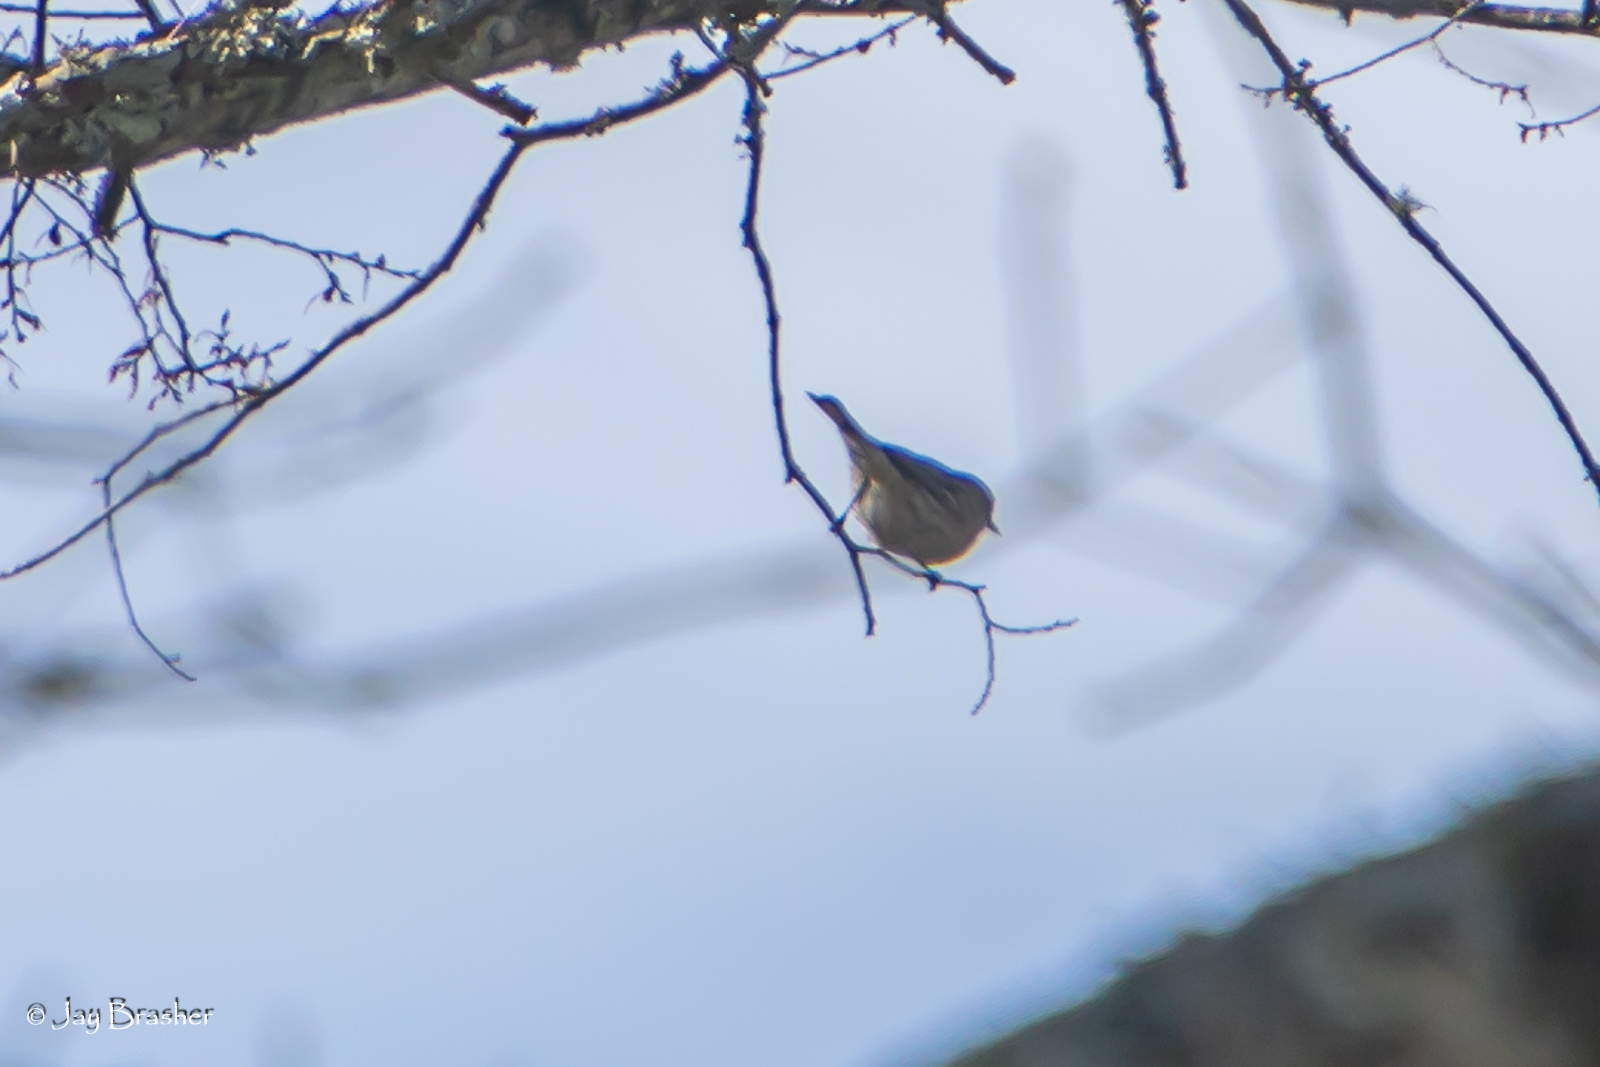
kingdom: Animalia
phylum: Chordata
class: Aves
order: Passeriformes
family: Parulidae
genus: Setophaga
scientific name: Setophaga coronata
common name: Myrtle warbler
